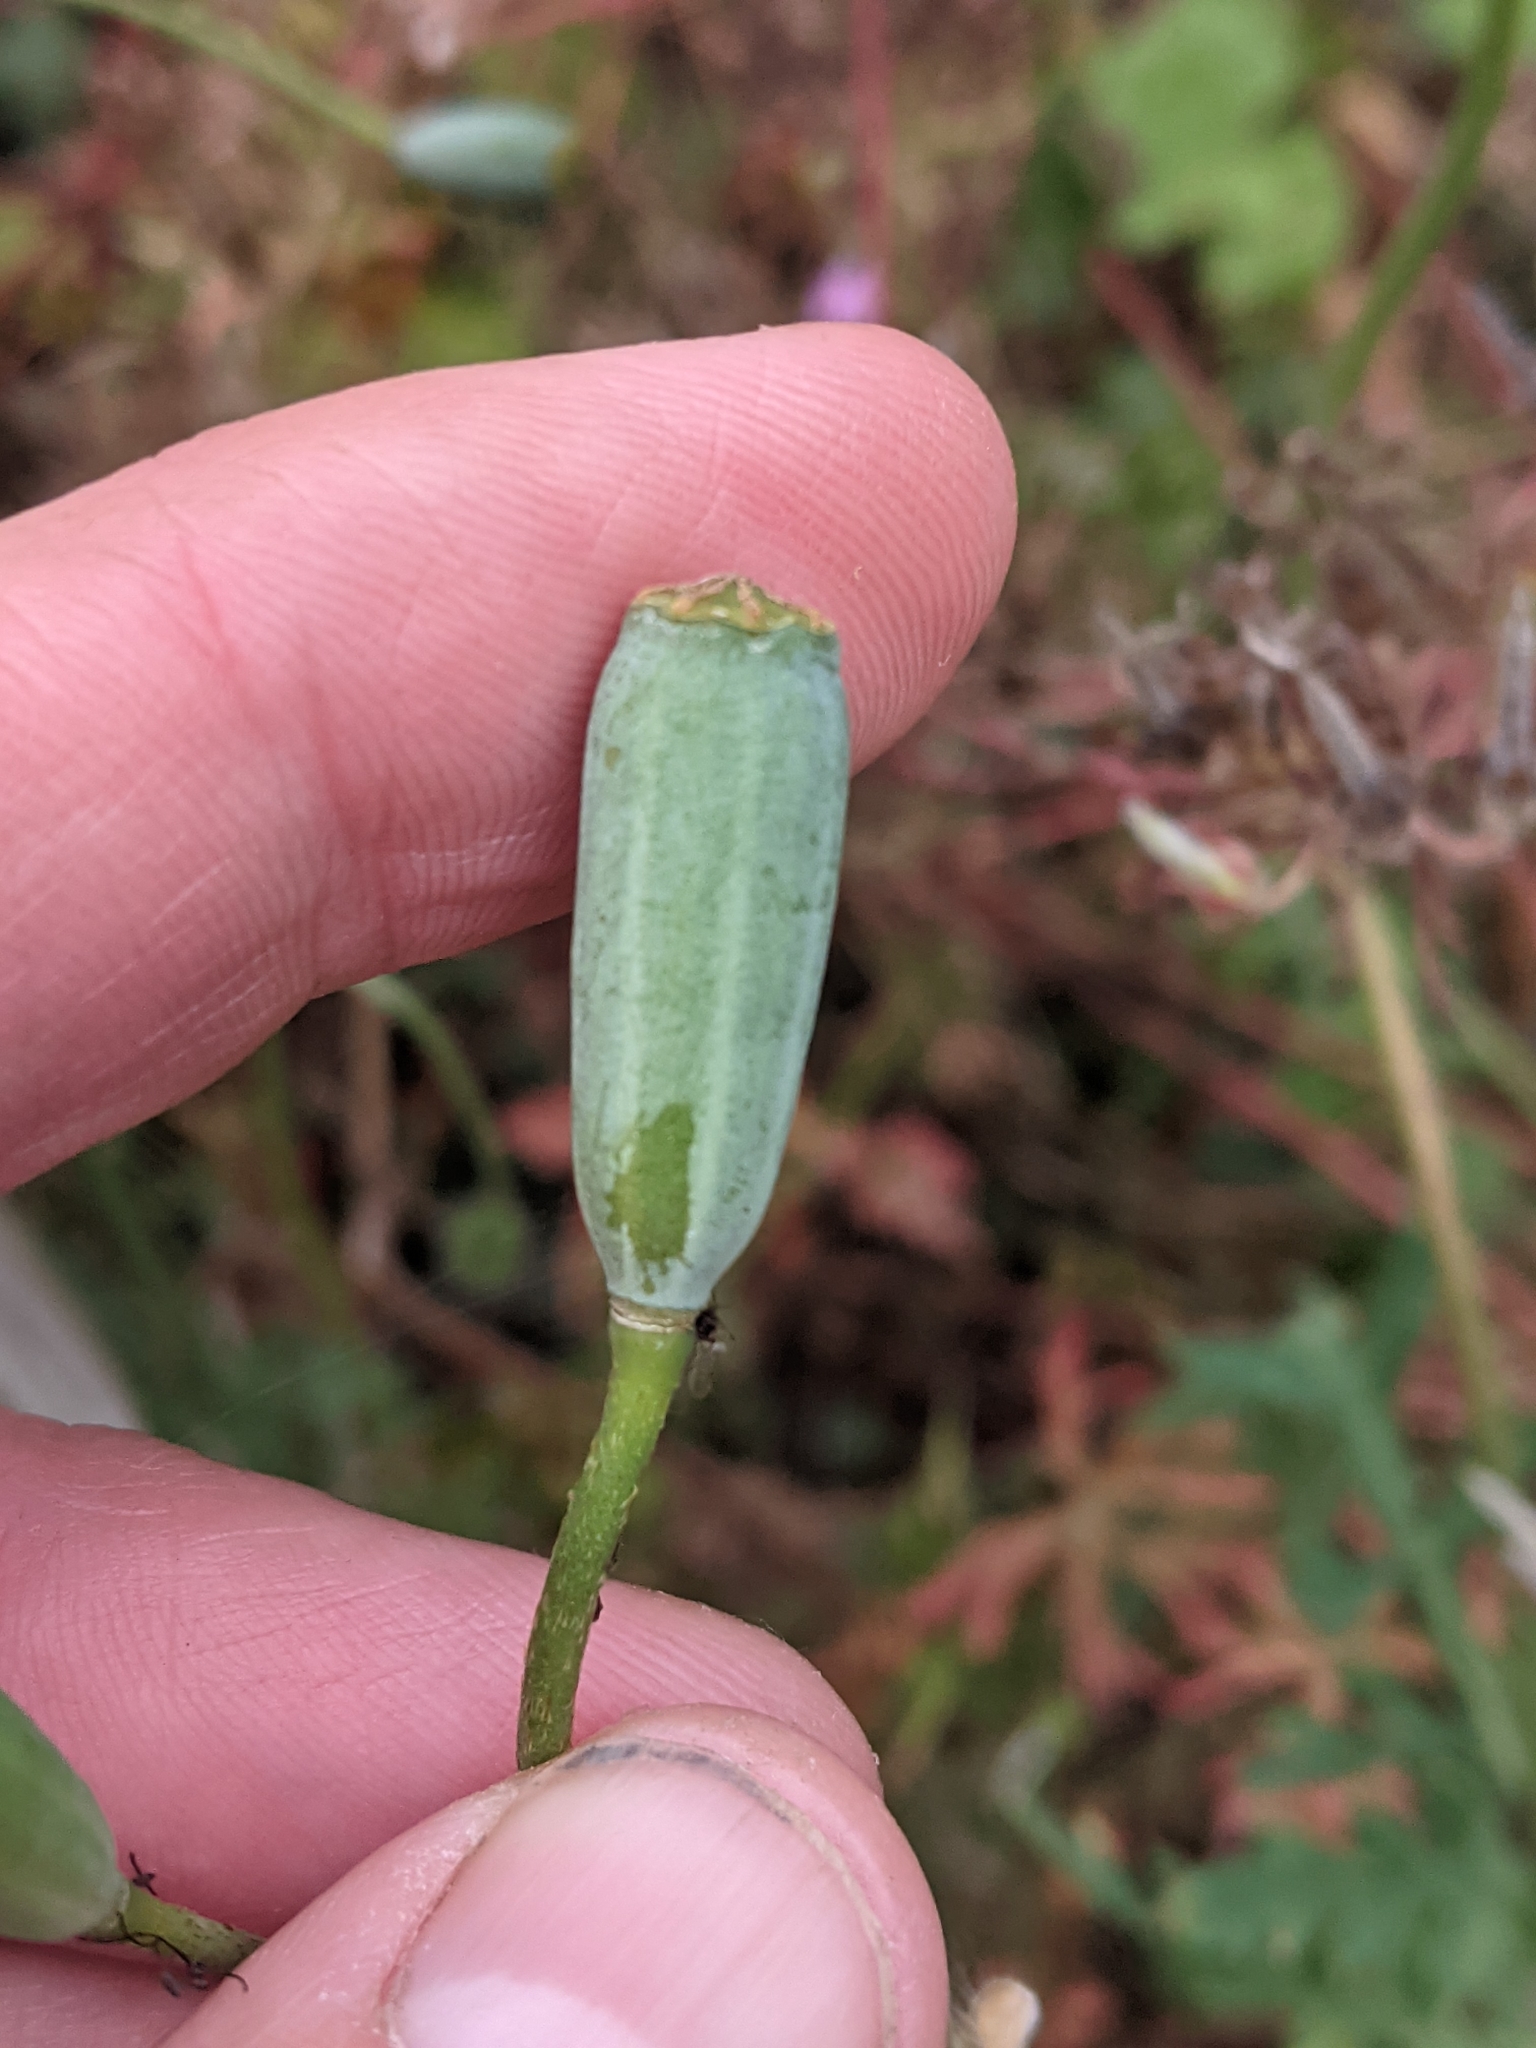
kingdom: Plantae
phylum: Tracheophyta
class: Magnoliopsida
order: Ranunculales
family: Papaveraceae
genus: Papaver
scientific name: Papaver dubium
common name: Long-headed poppy
